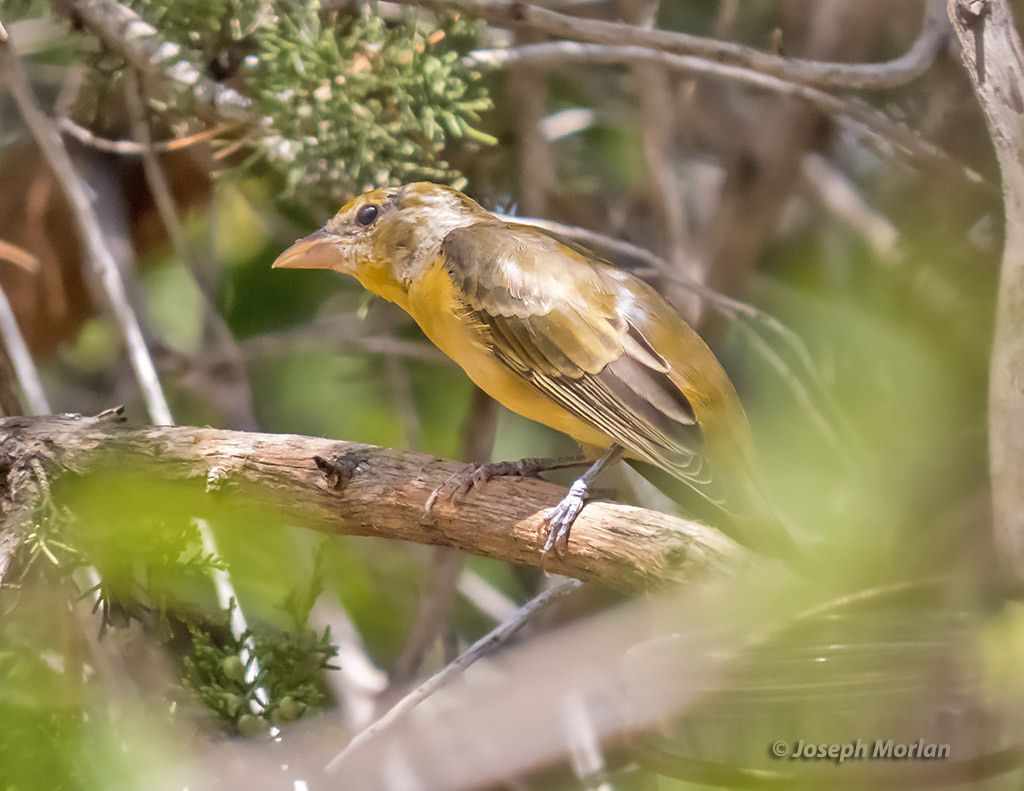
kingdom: Animalia
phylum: Chordata
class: Aves
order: Passeriformes
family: Cardinalidae
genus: Piranga
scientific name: Piranga rubra
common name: Summer tanager
